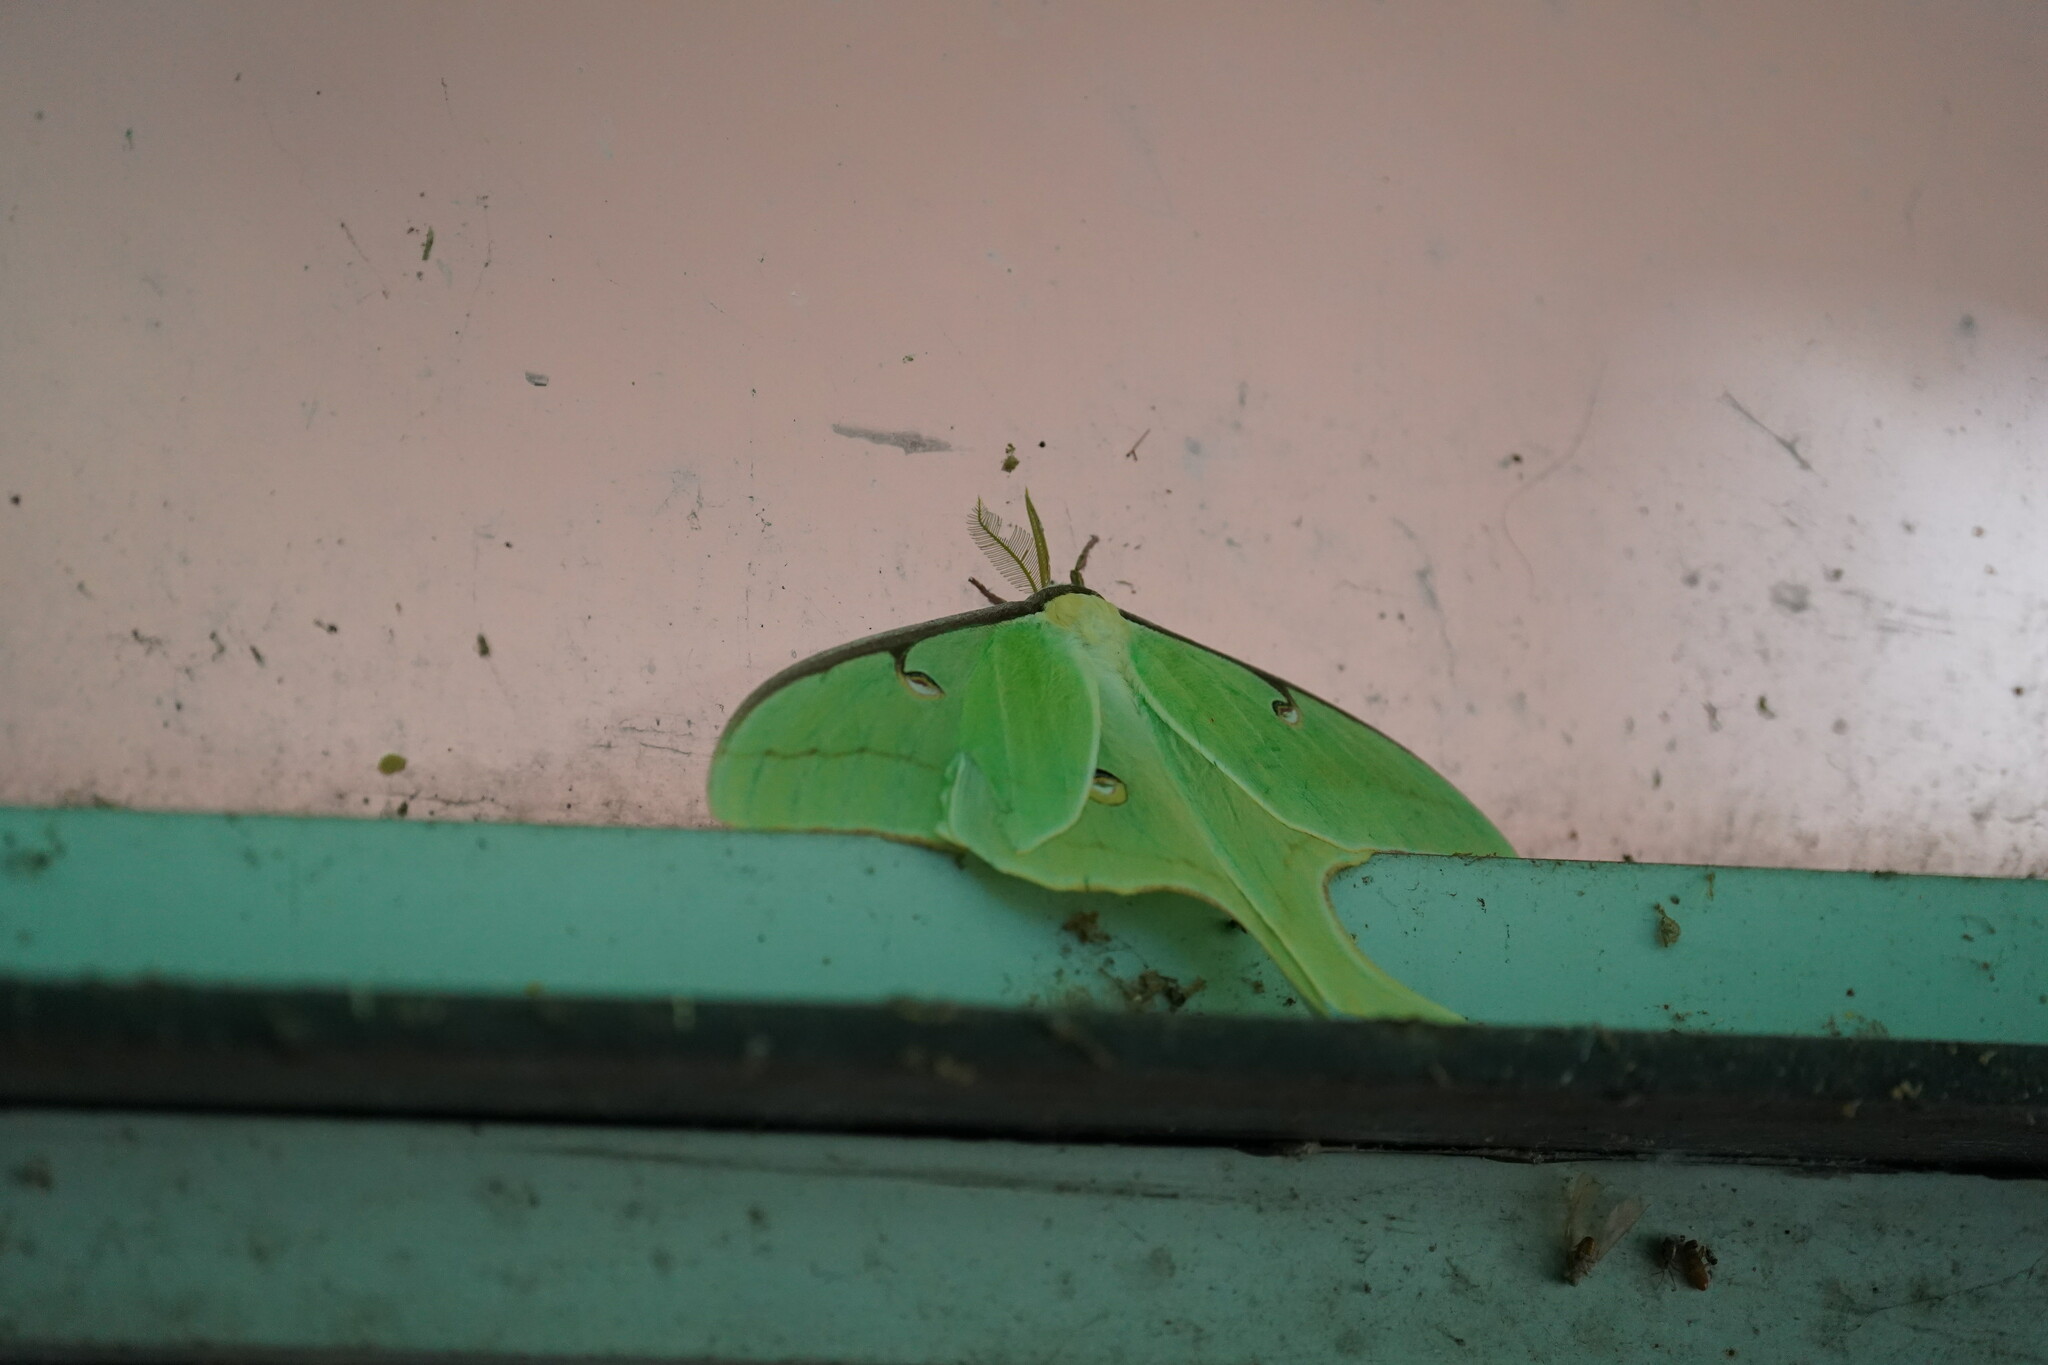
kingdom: Animalia
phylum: Arthropoda
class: Insecta
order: Lepidoptera
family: Saturniidae
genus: Actias
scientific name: Actias luna
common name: Luna moth
